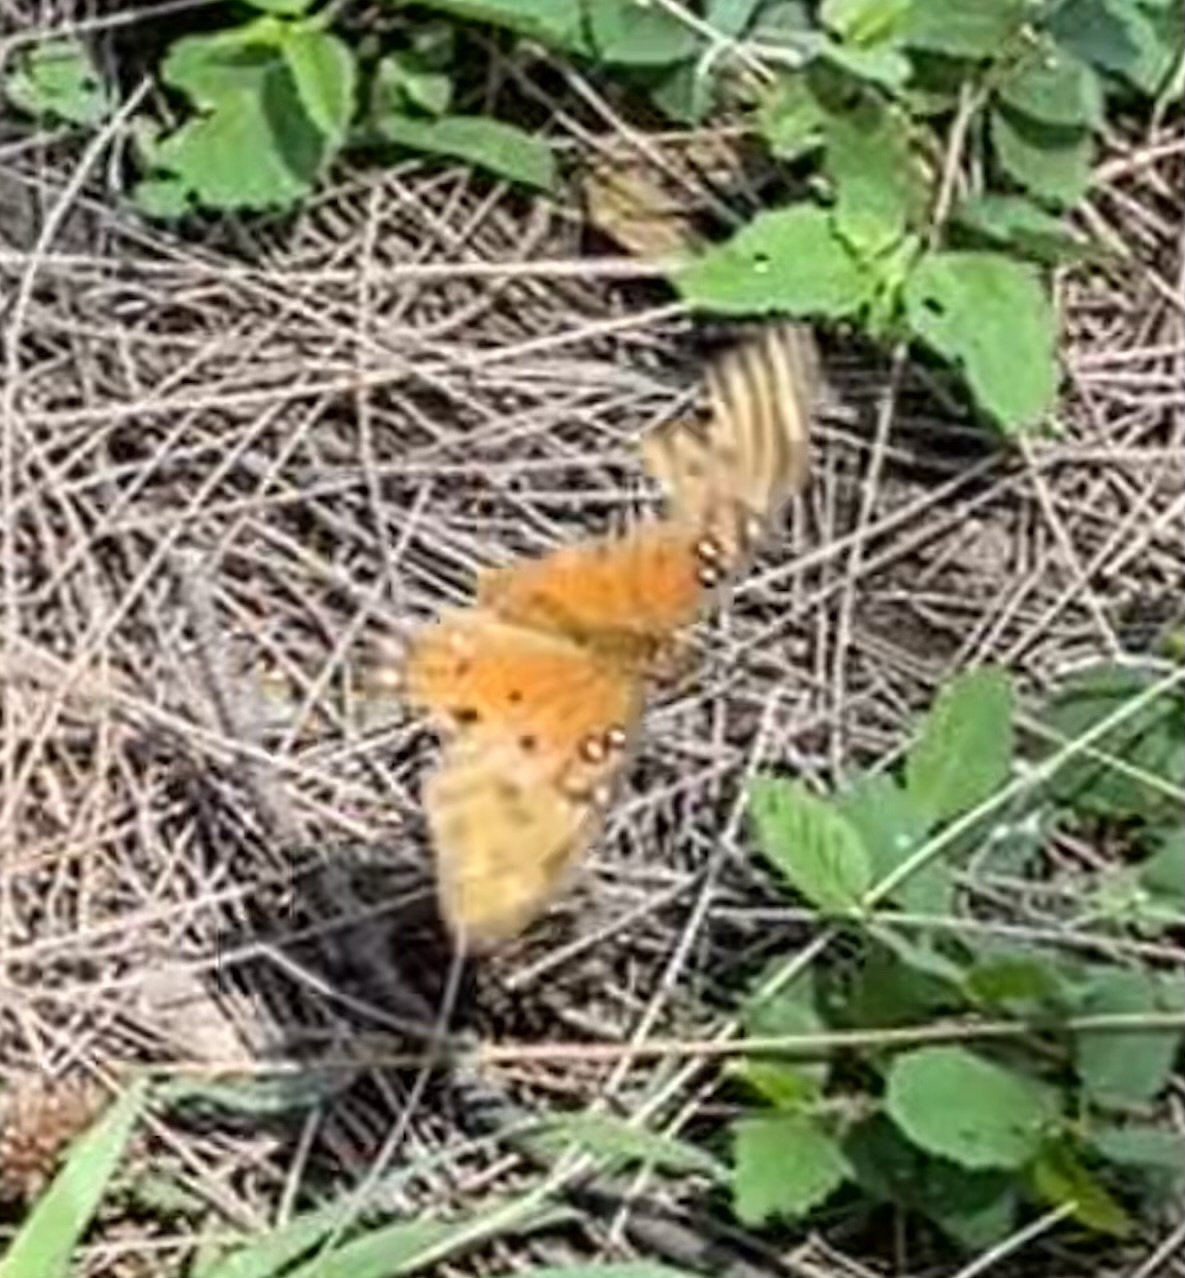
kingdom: Animalia
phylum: Arthropoda
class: Insecta
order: Lepidoptera
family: Nymphalidae
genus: Dione
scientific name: Dione vanillae
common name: Gulf fritillary
